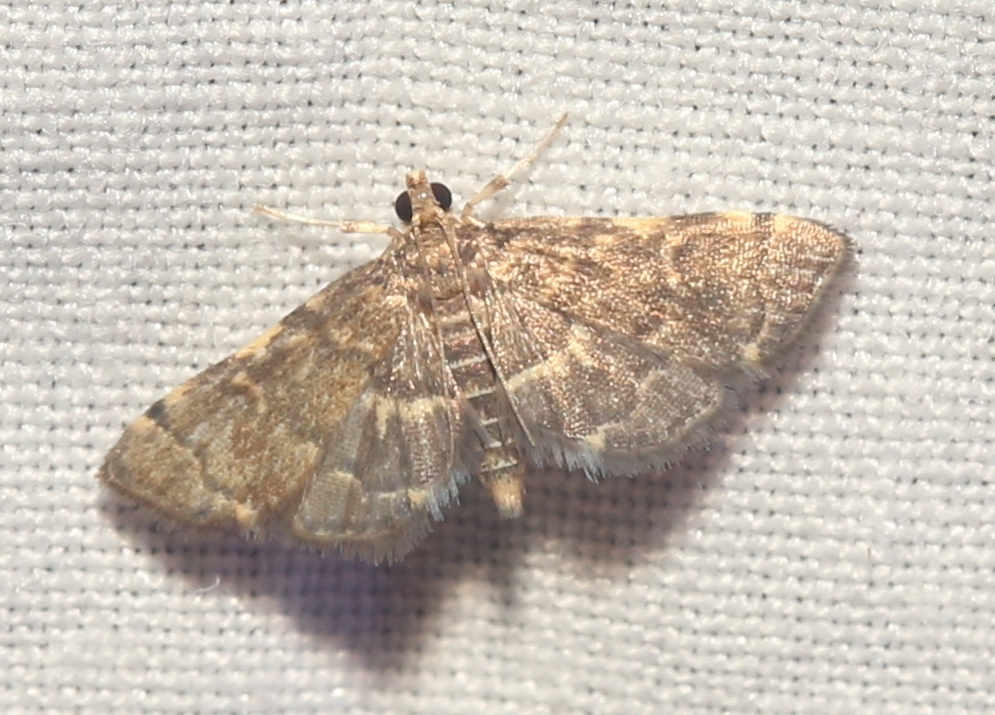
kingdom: Animalia
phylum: Arthropoda
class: Insecta
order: Lepidoptera
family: Crambidae
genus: Anageshna
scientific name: Anageshna primordialis
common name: Yellow-spotted webworm moth
